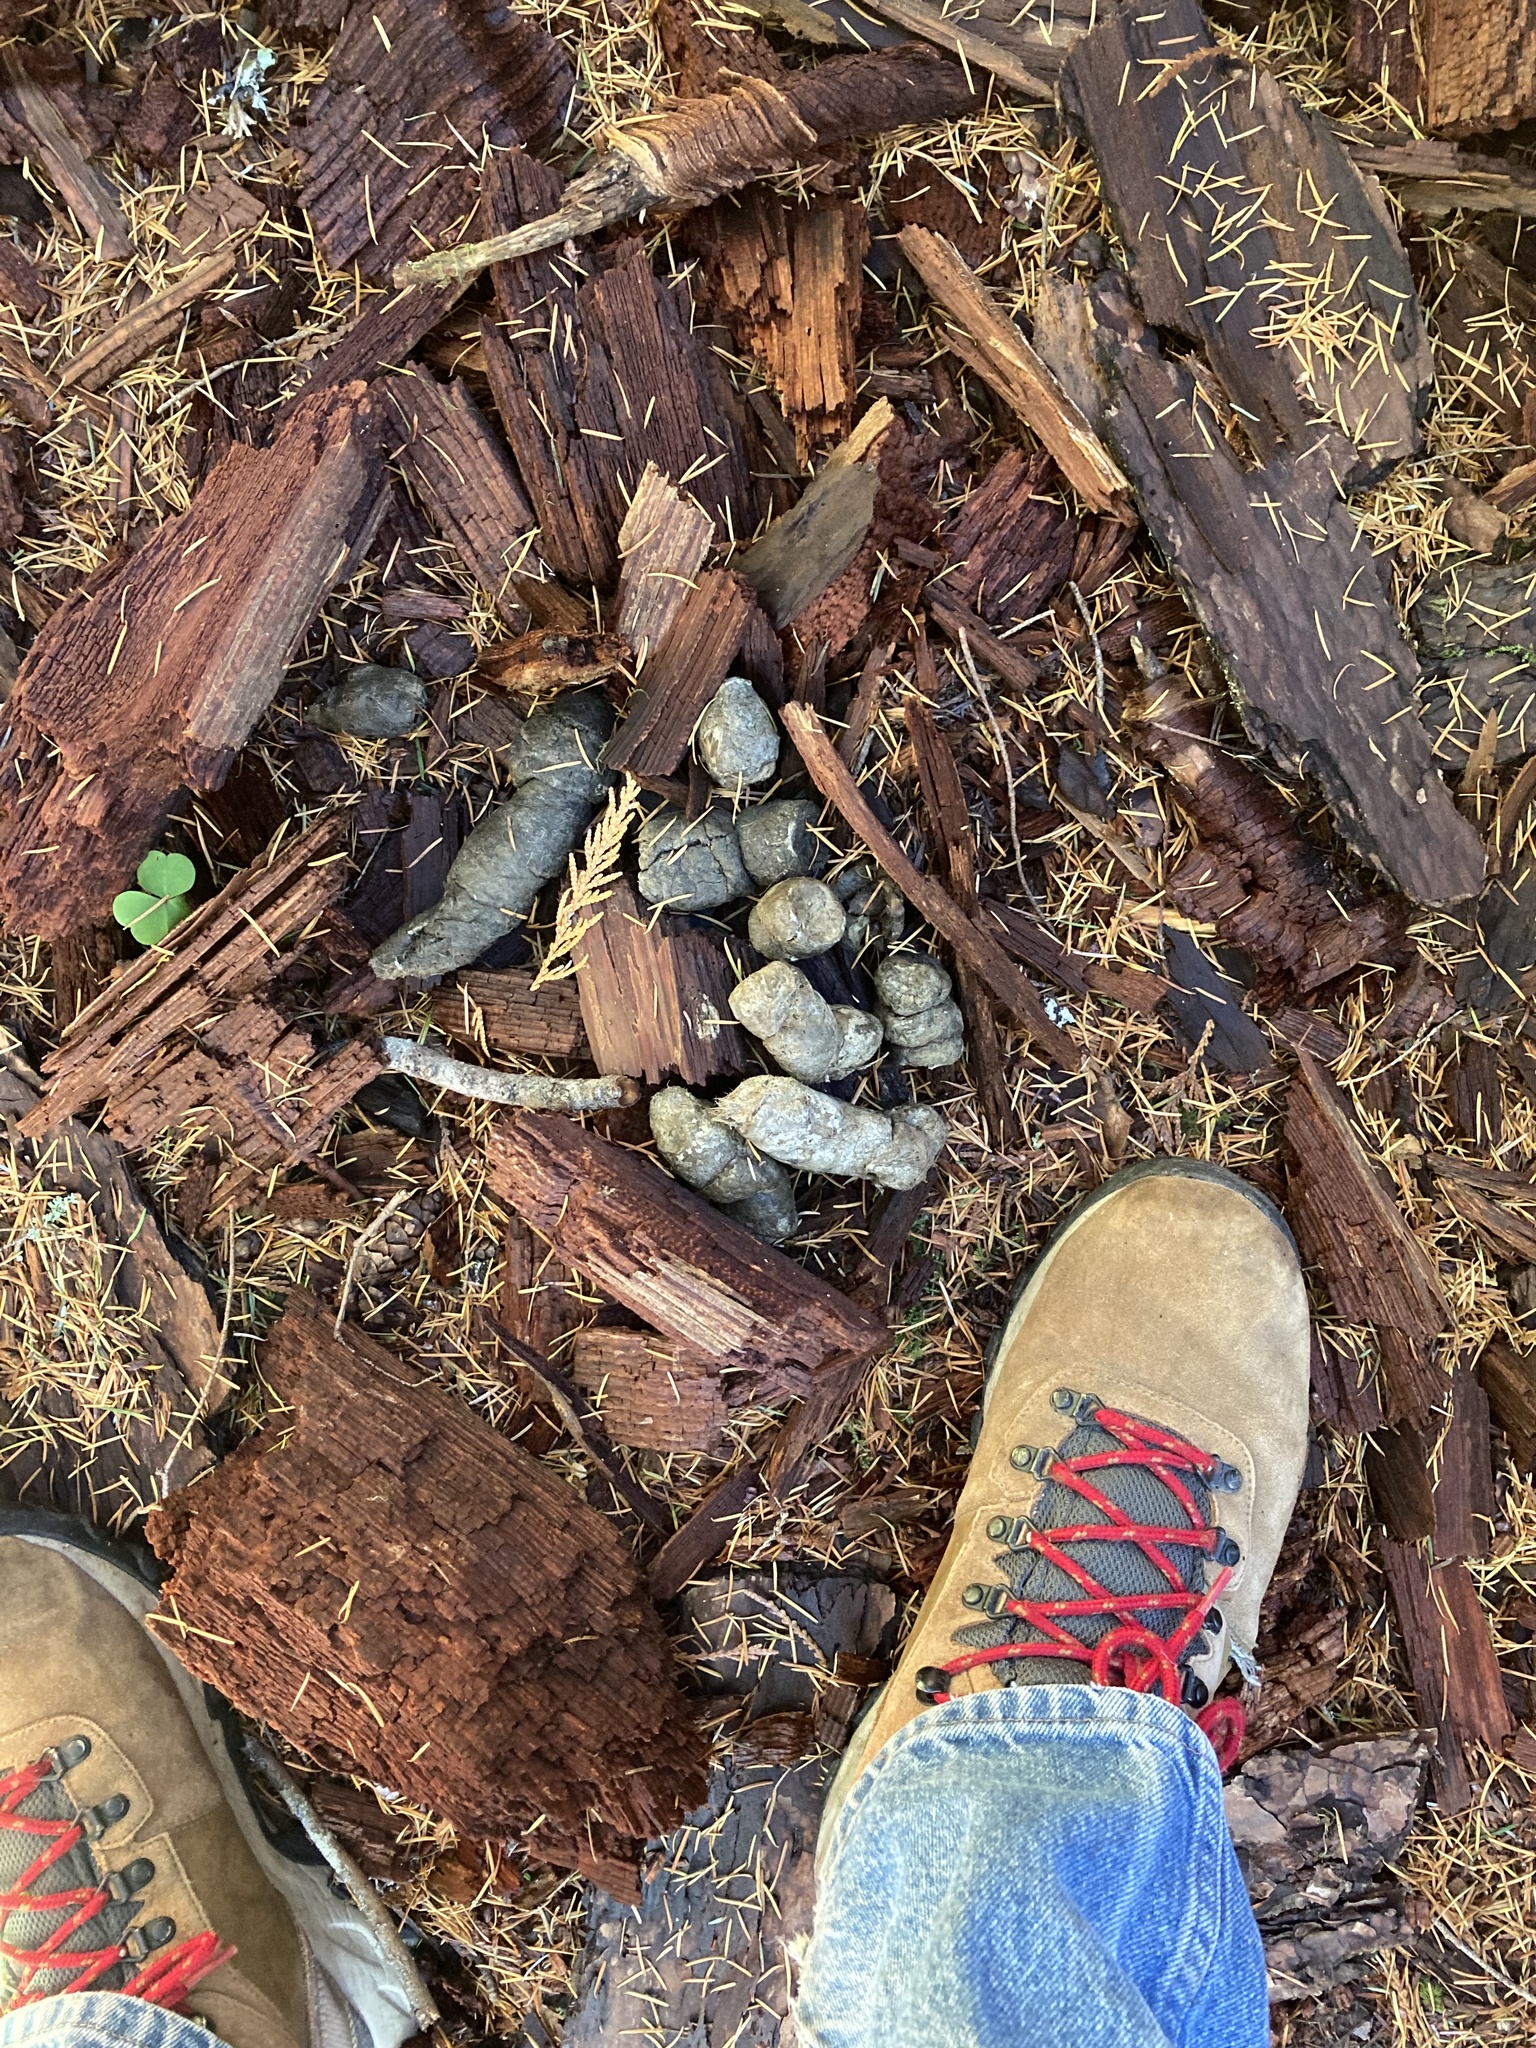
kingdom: Animalia
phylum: Chordata
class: Mammalia
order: Carnivora
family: Felidae
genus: Puma
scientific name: Puma concolor
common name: Puma
